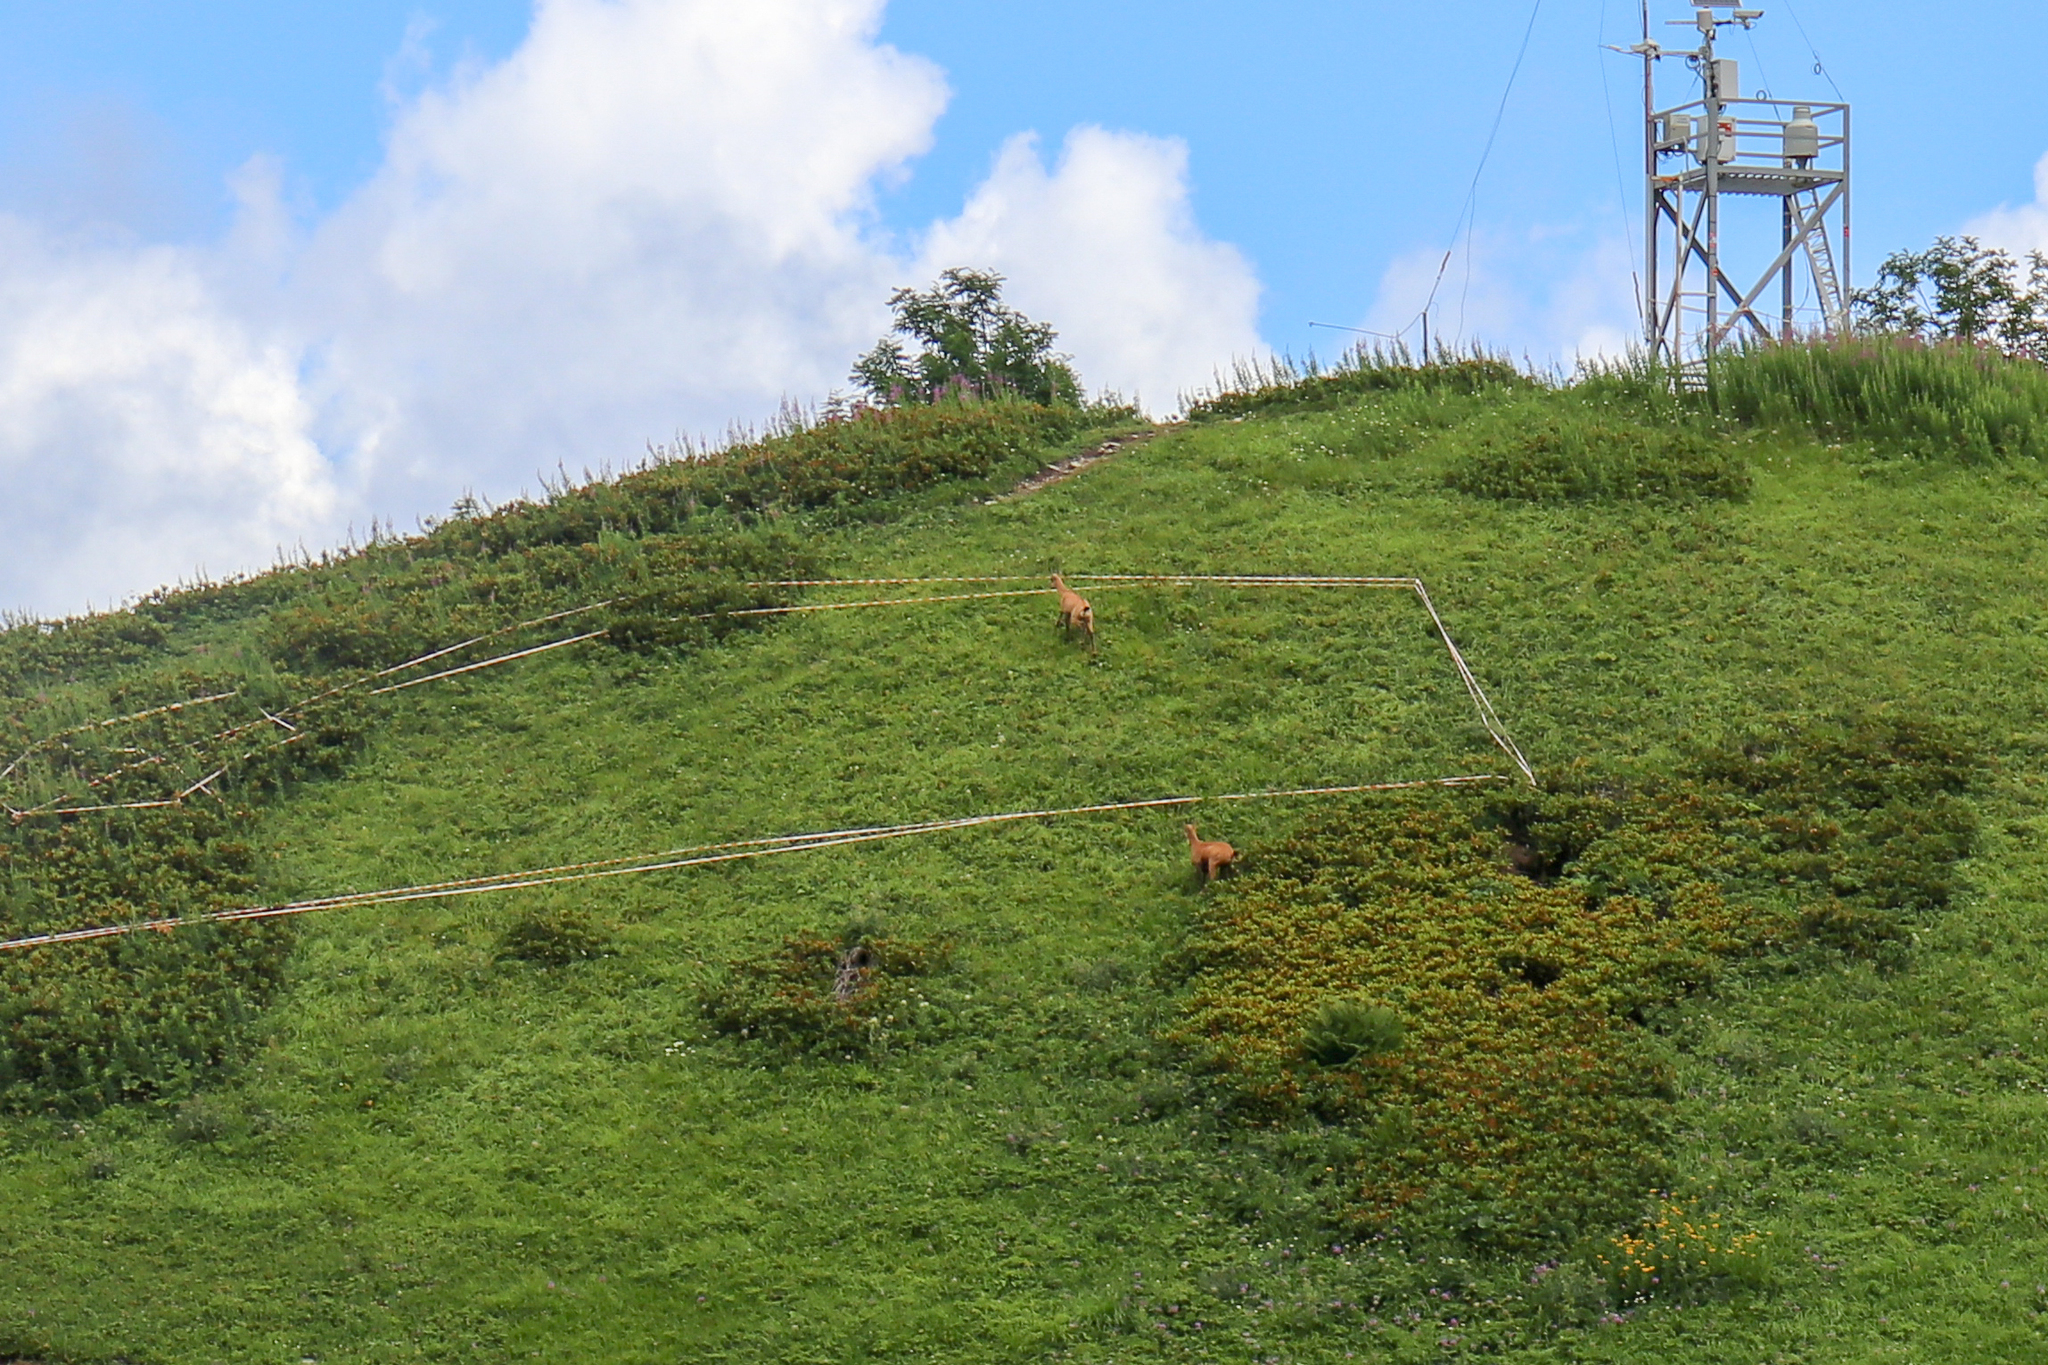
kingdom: Animalia
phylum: Chordata
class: Mammalia
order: Artiodactyla
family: Bovidae
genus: Rupicapra
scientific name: Rupicapra rupicapra
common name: Chamois
